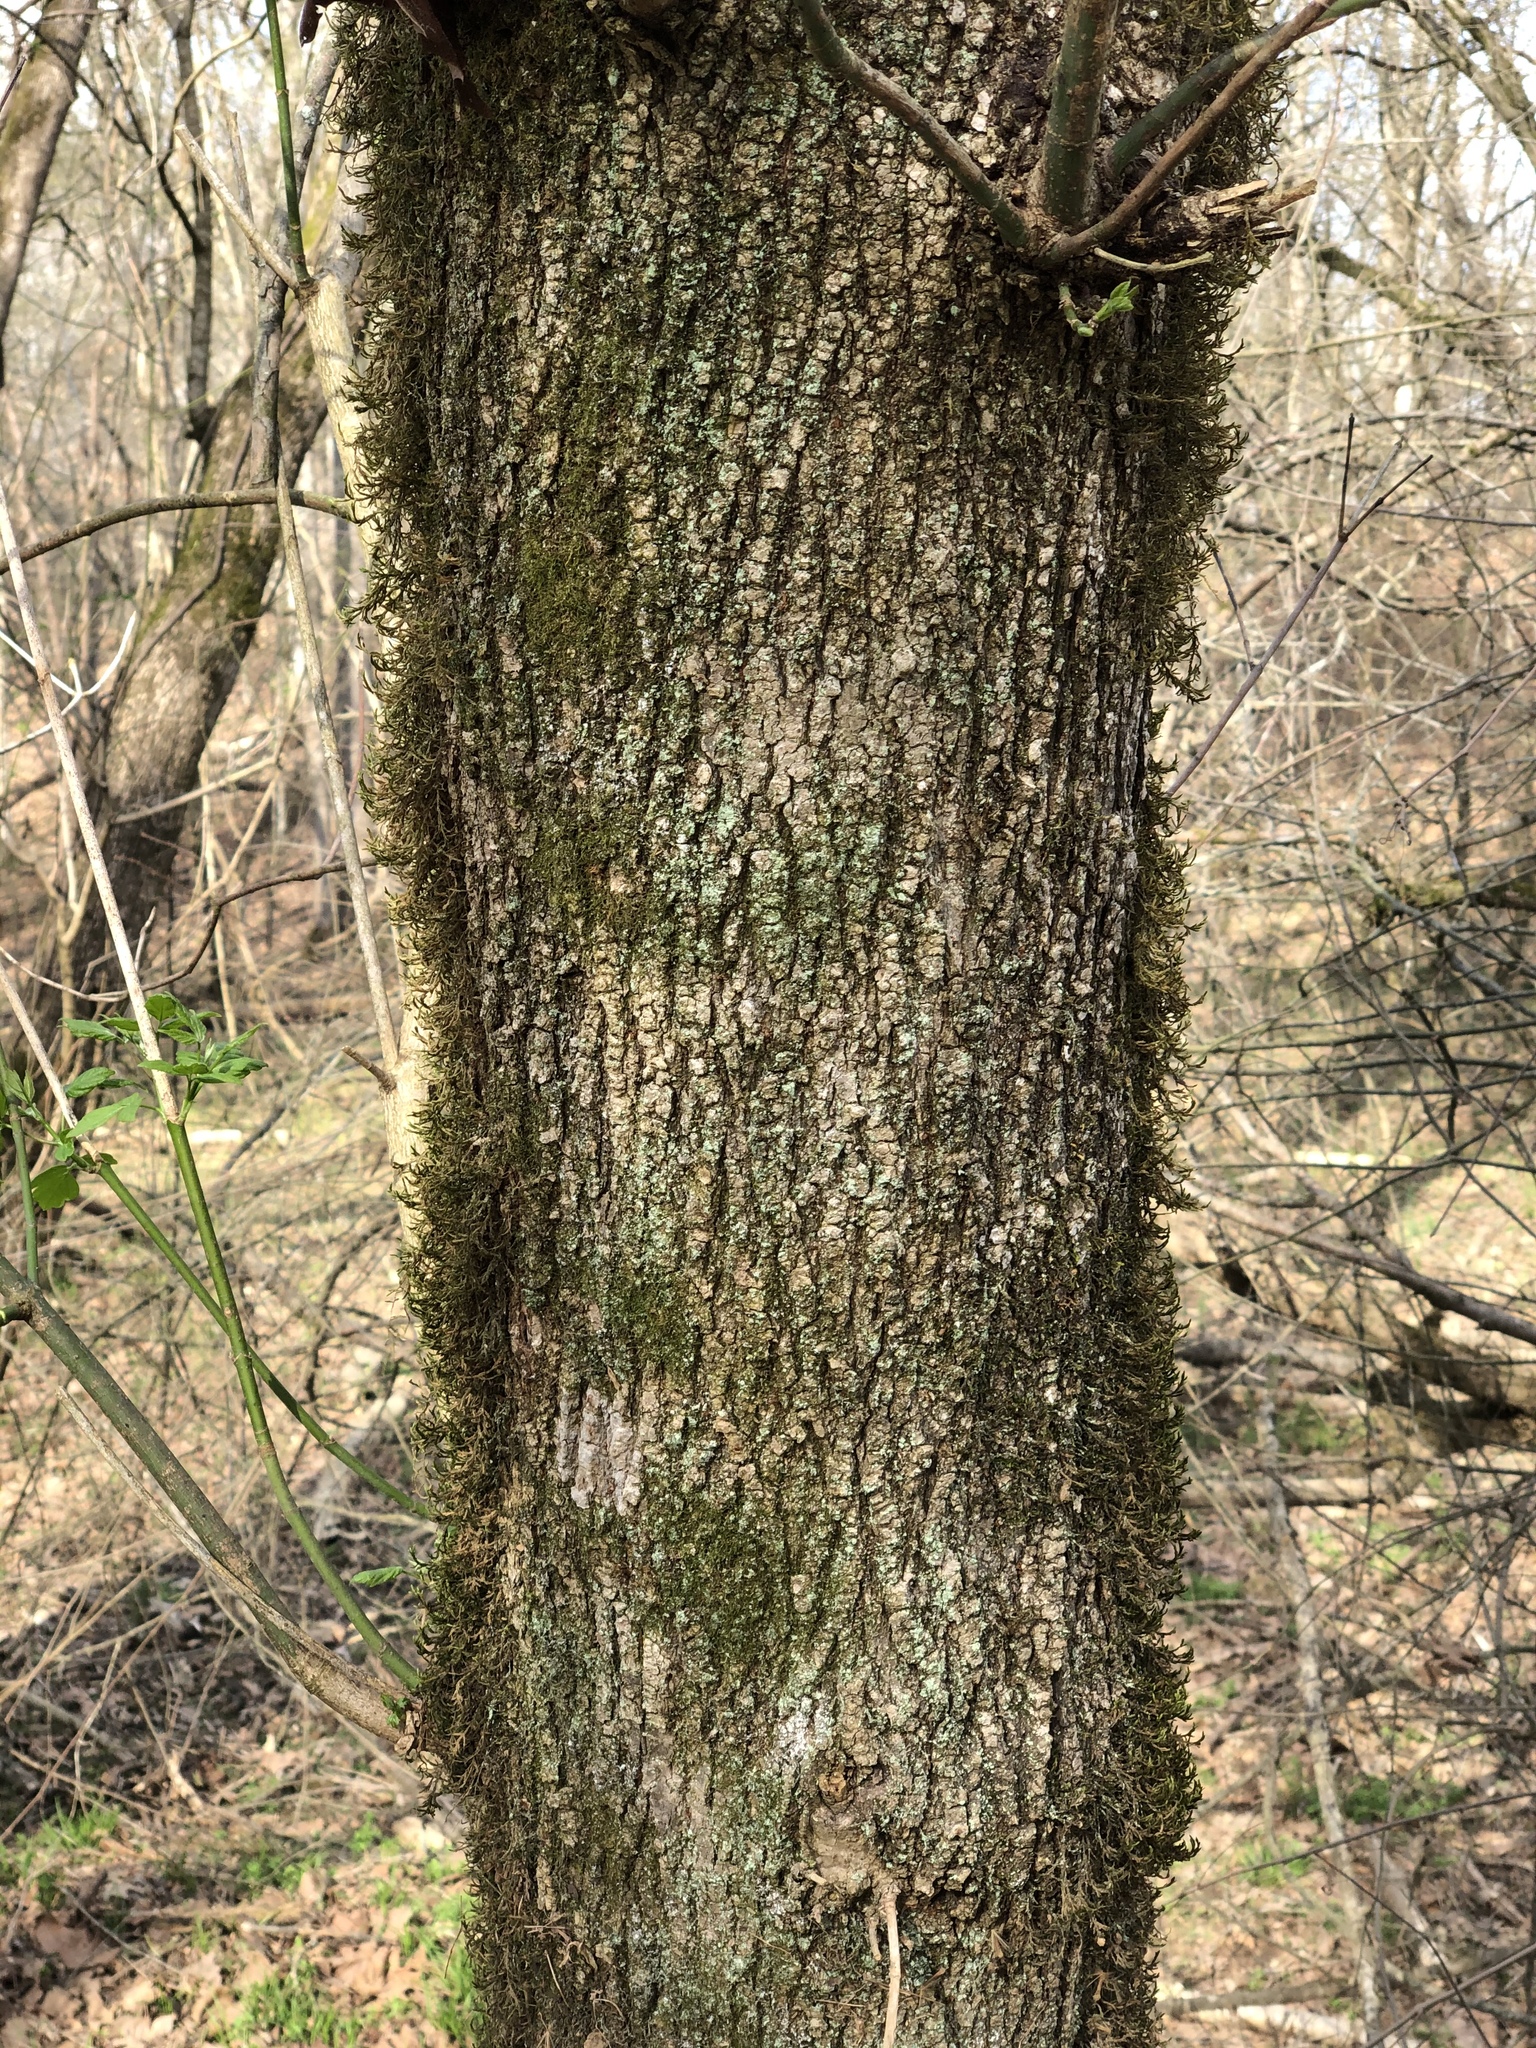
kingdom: Plantae
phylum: Tracheophyta
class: Magnoliopsida
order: Sapindales
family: Sapindaceae
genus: Acer
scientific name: Acer negundo
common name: Ashleaf maple
